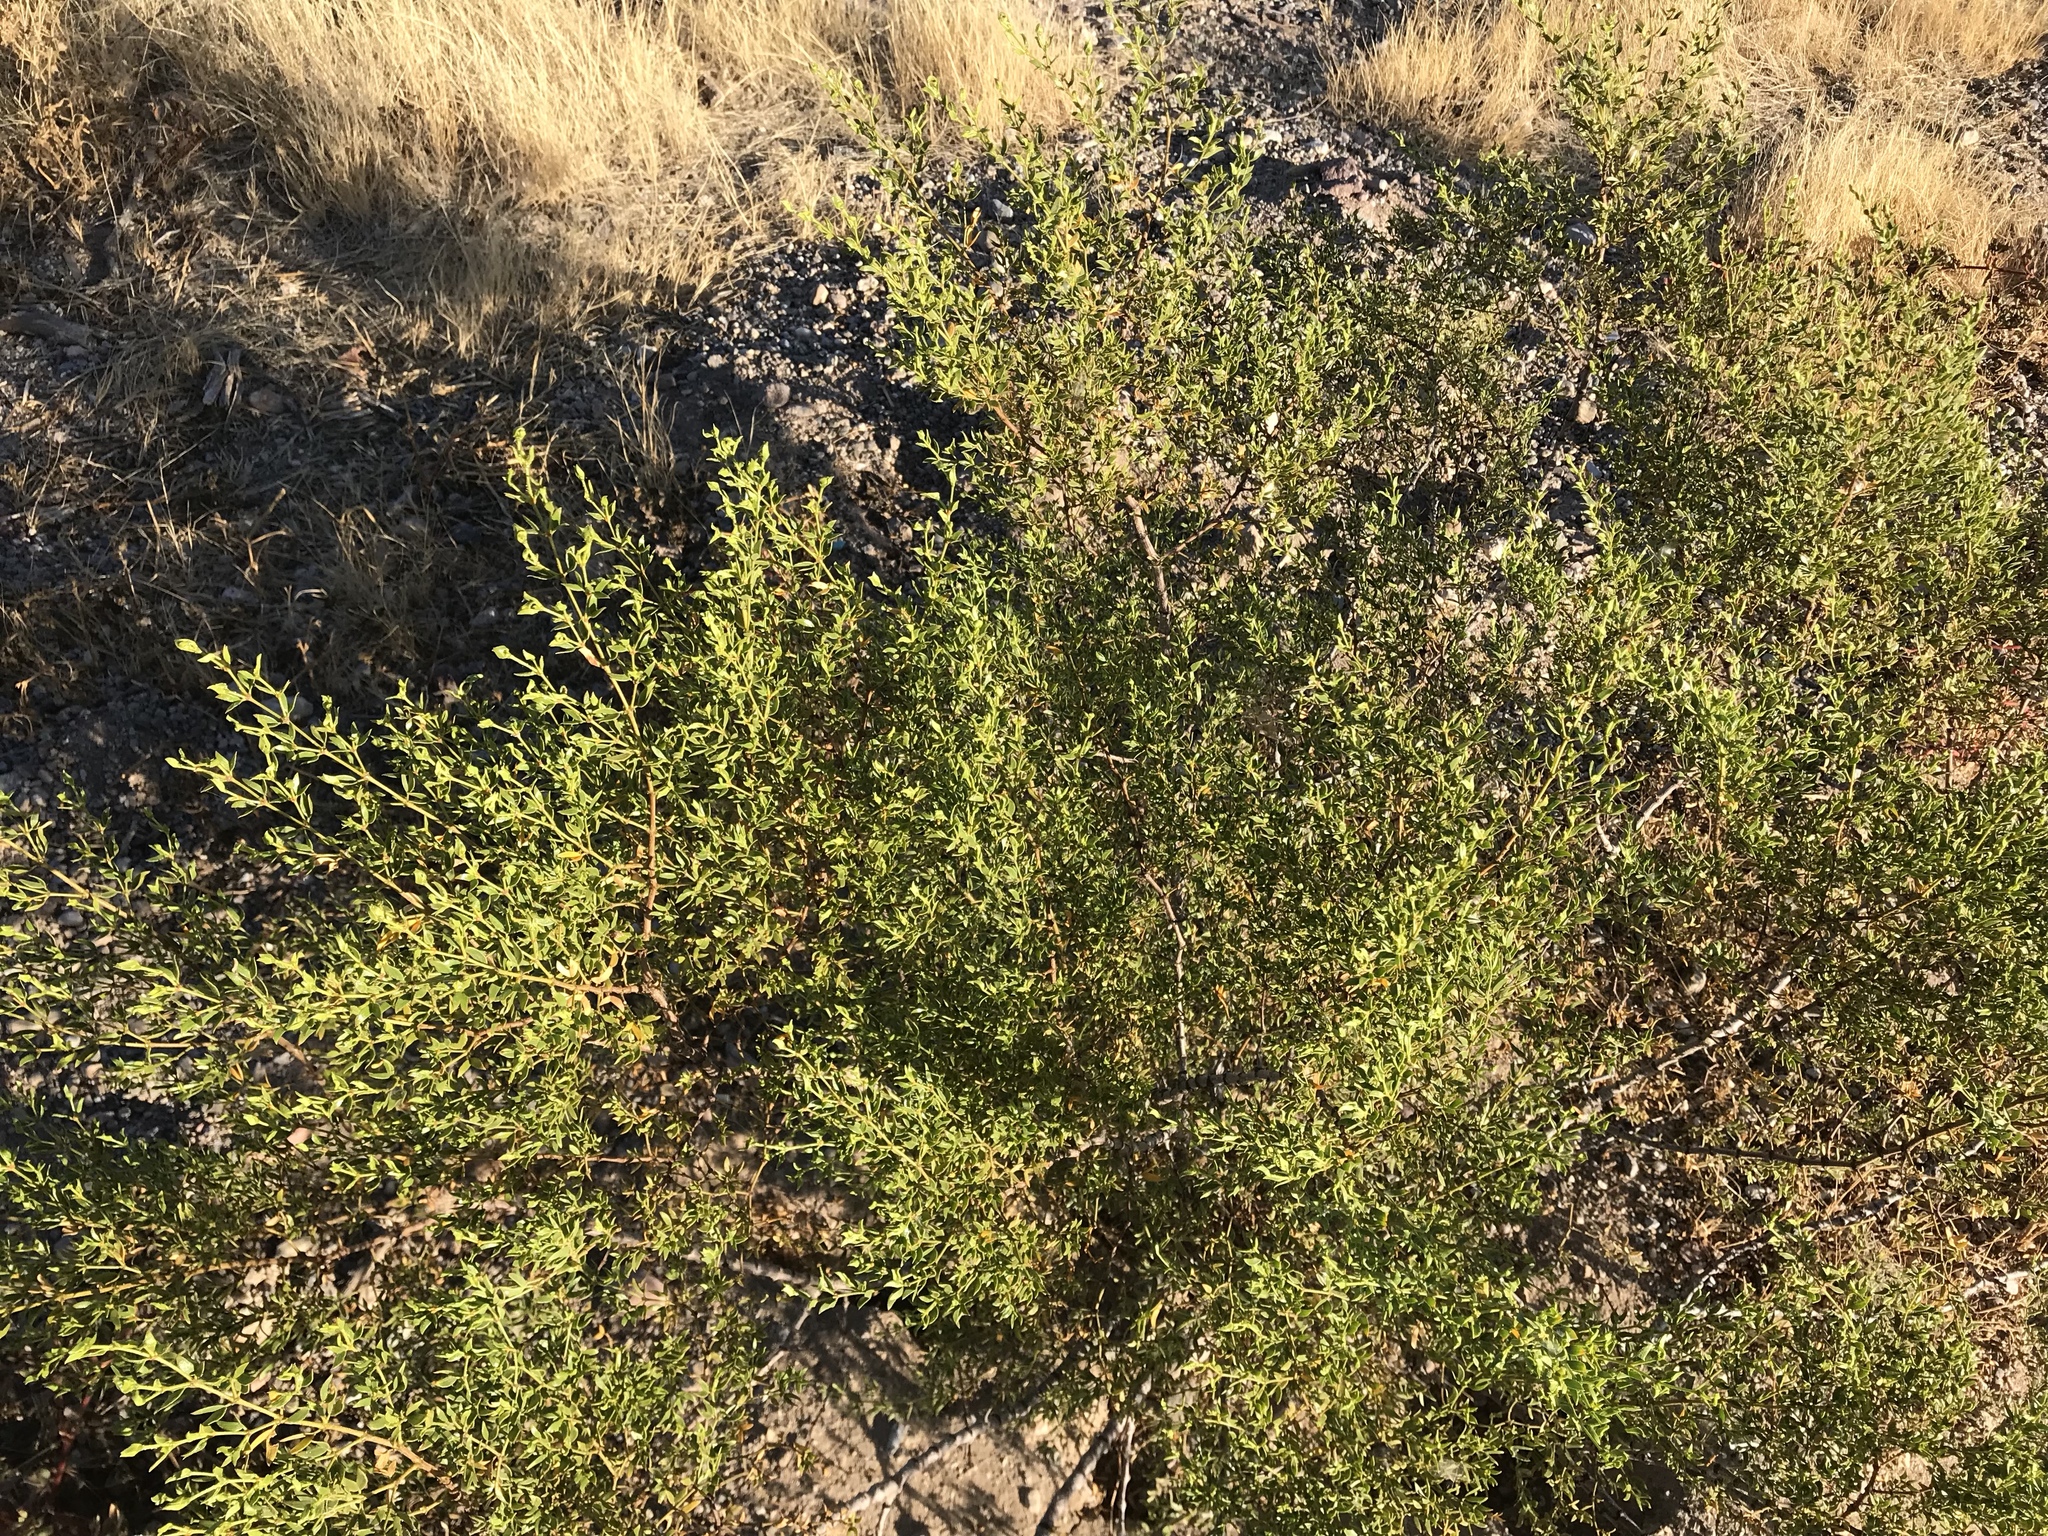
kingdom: Plantae
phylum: Tracheophyta
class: Magnoliopsida
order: Zygophyllales
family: Zygophyllaceae
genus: Larrea
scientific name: Larrea tridentata
